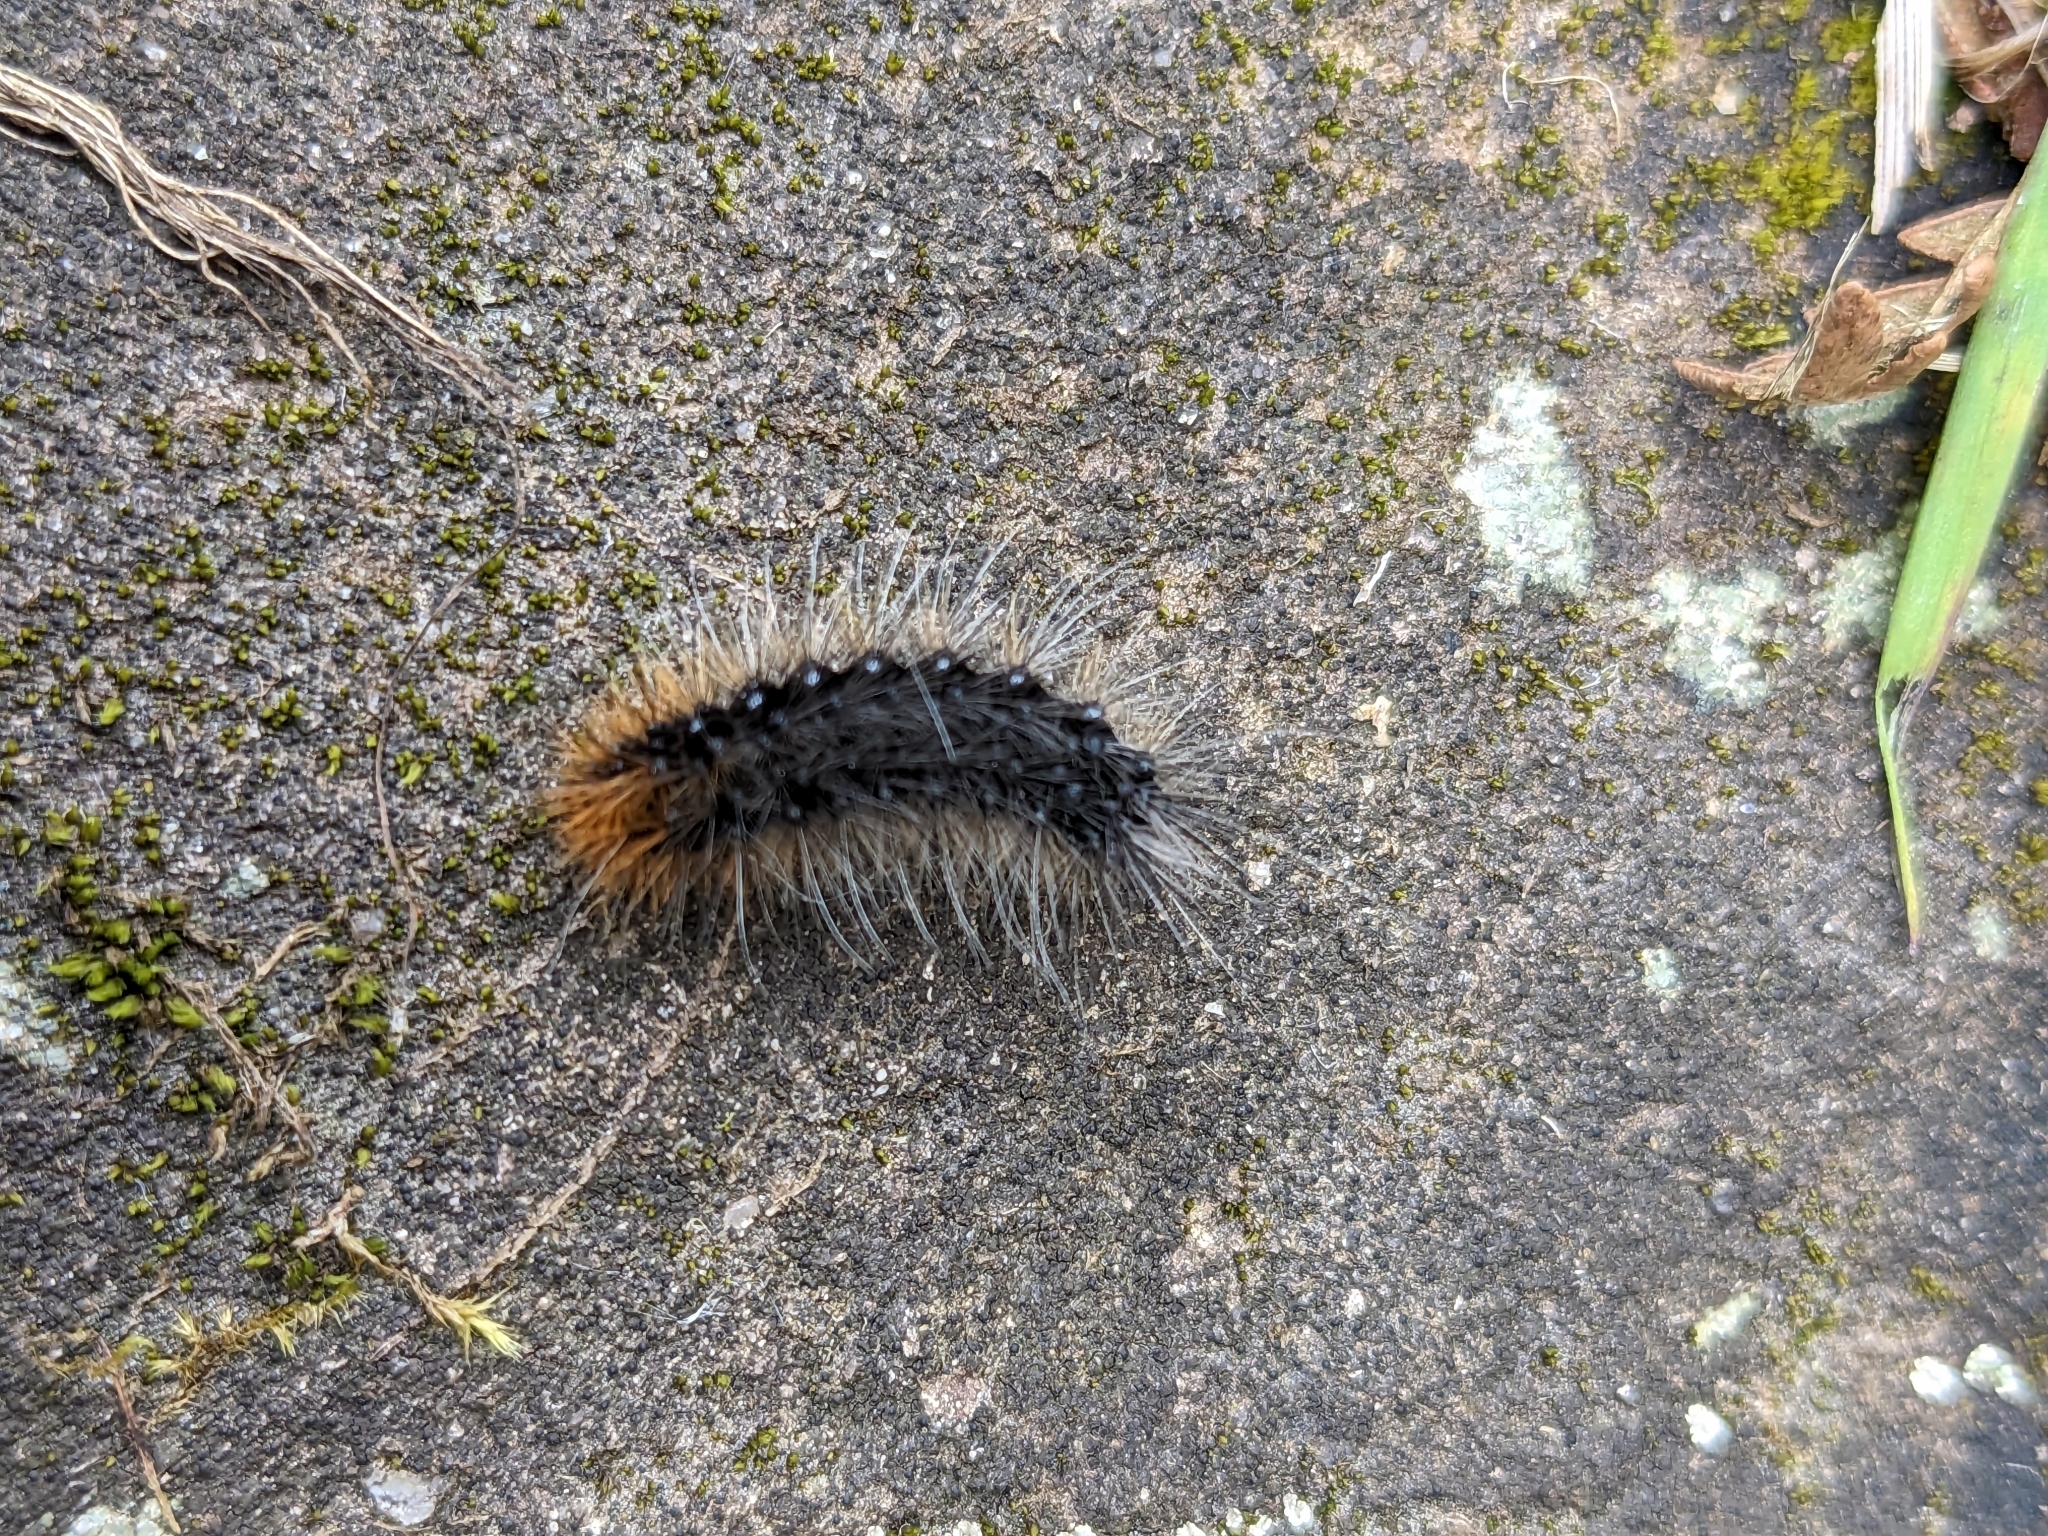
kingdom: Animalia
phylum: Arthropoda
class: Insecta
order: Lepidoptera
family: Erebidae
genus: Arctia
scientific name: Arctia caja
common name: Garden tiger
